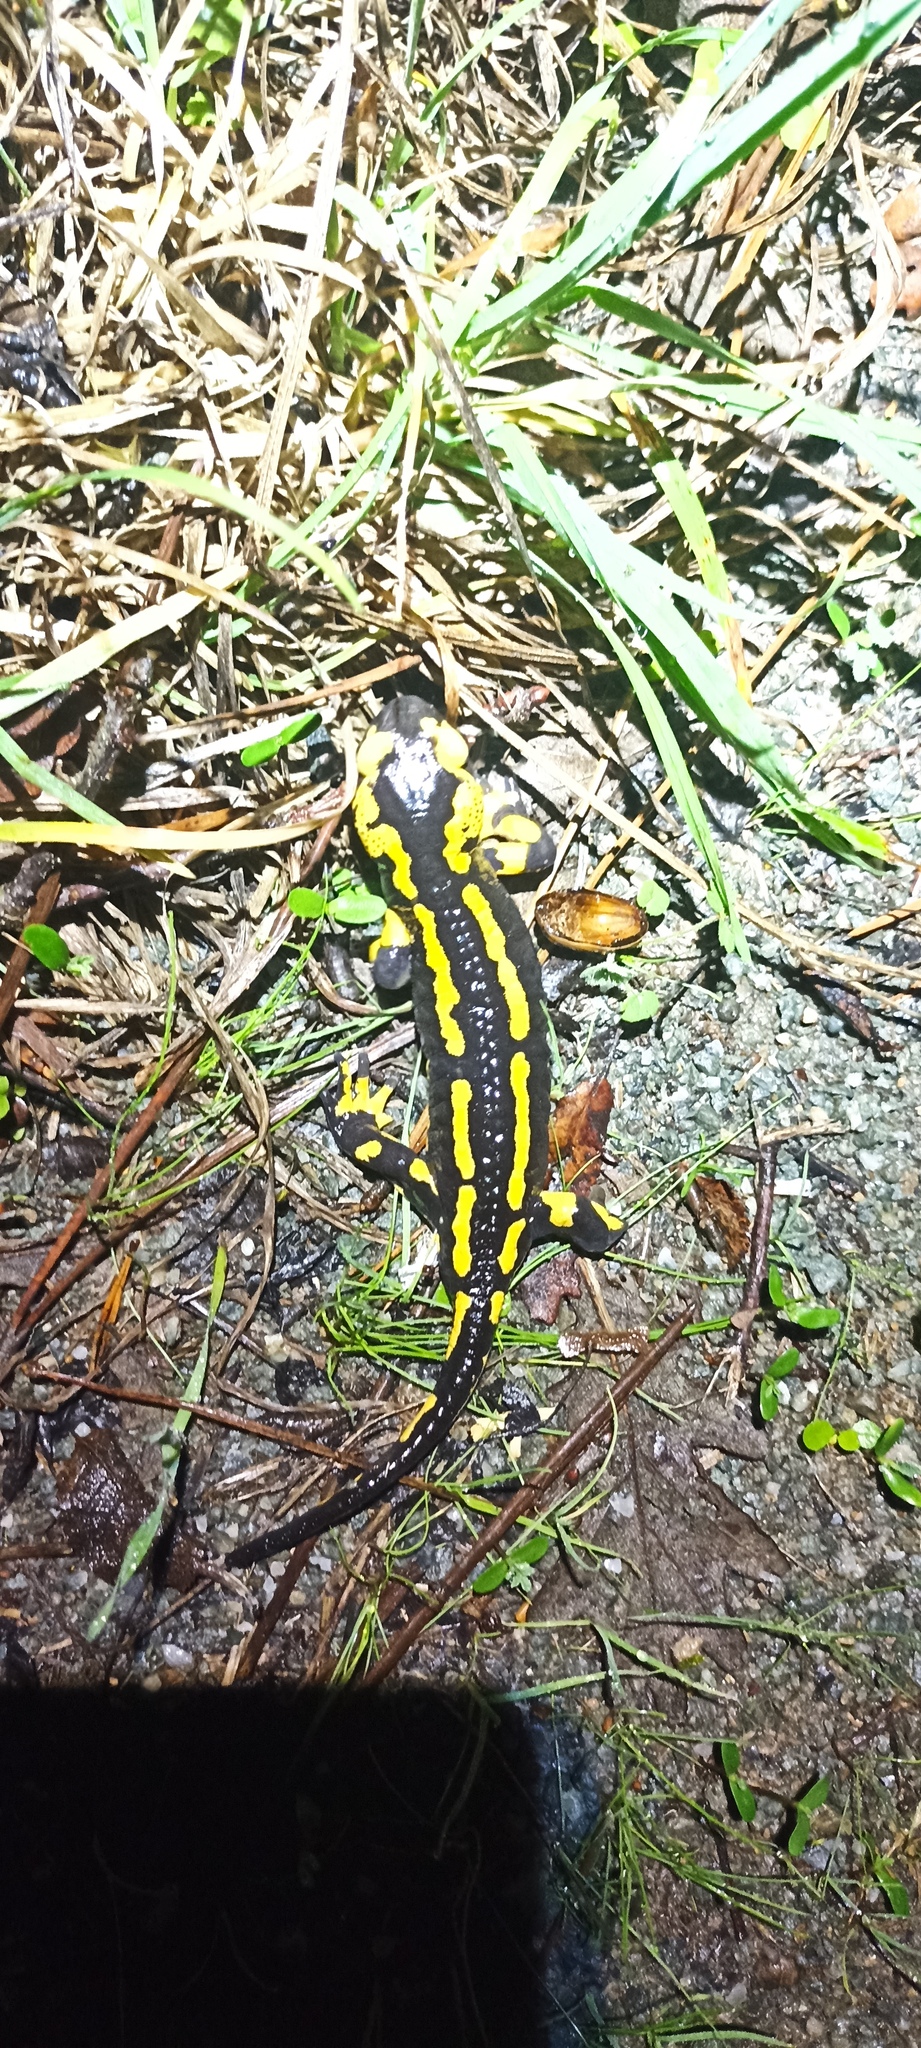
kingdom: Animalia
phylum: Chordata
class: Amphibia
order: Caudata
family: Salamandridae
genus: Salamandra
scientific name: Salamandra salamandra
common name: Fire salamander
